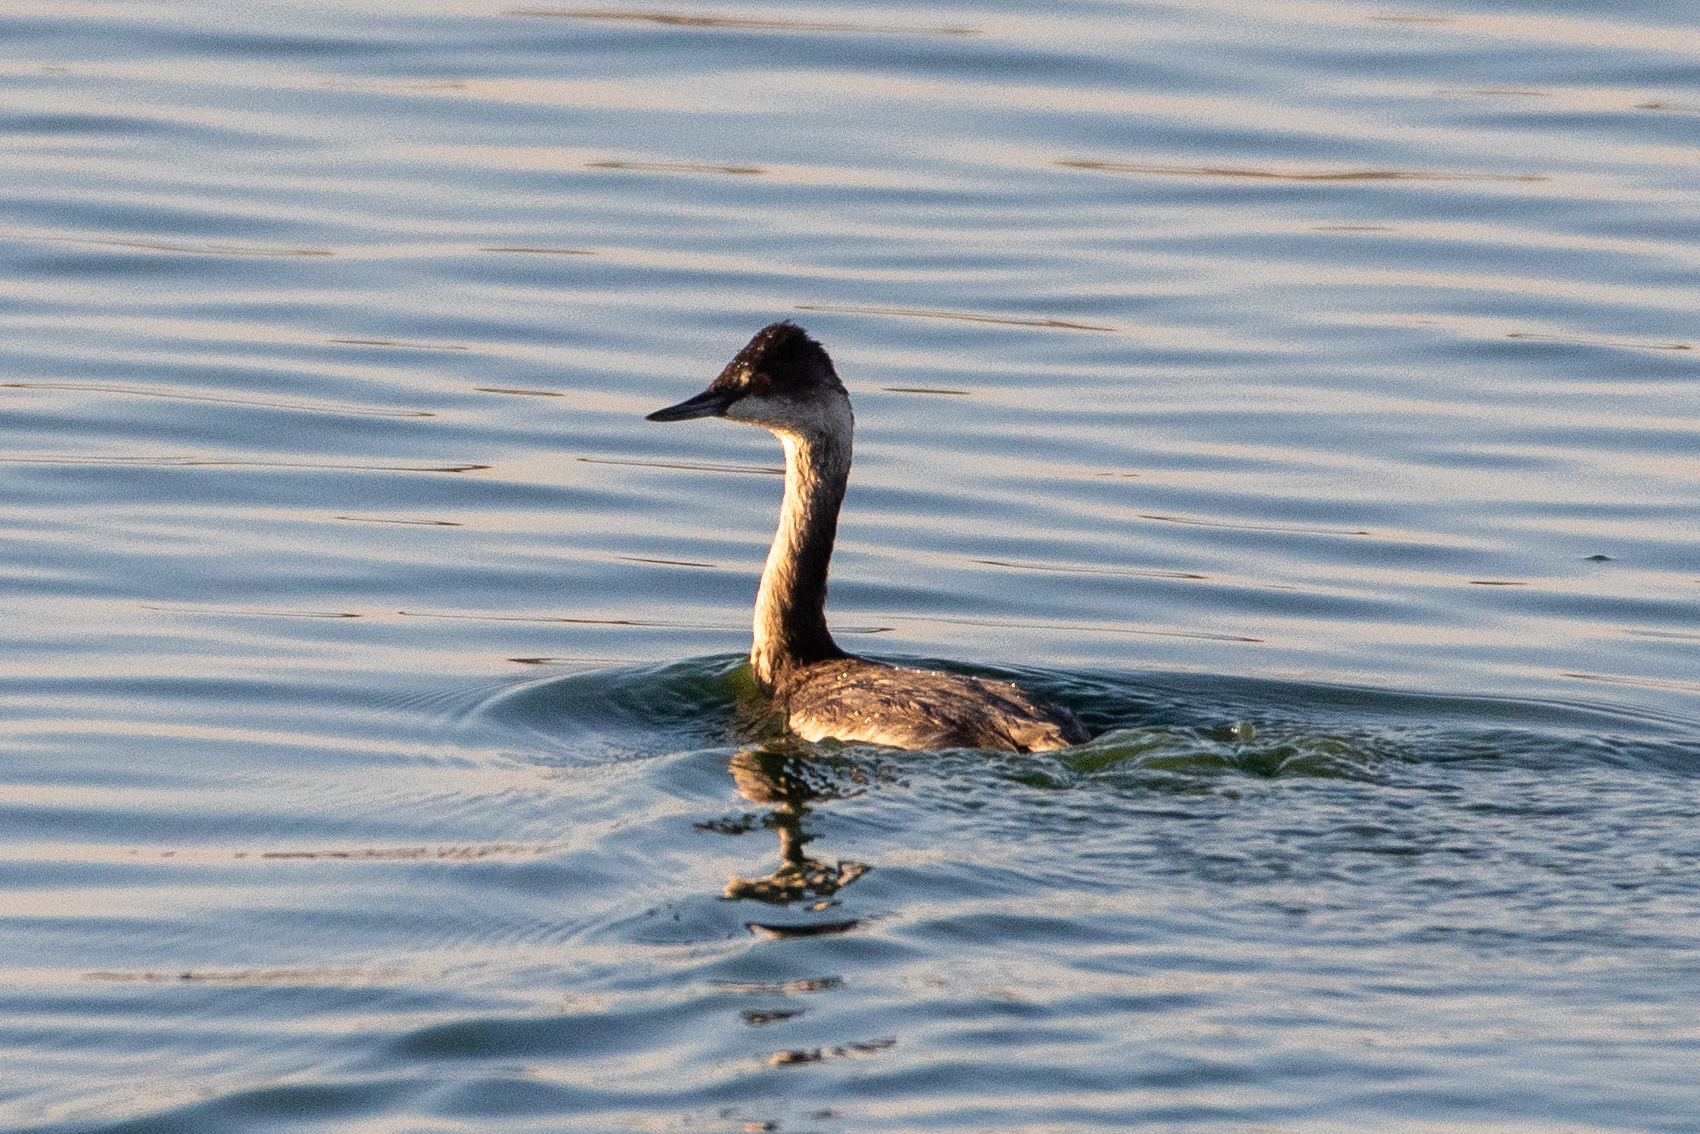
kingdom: Animalia
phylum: Chordata
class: Aves
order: Podicipediformes
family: Podicipedidae
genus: Podiceps
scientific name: Podiceps nigricollis
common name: Black-necked grebe
